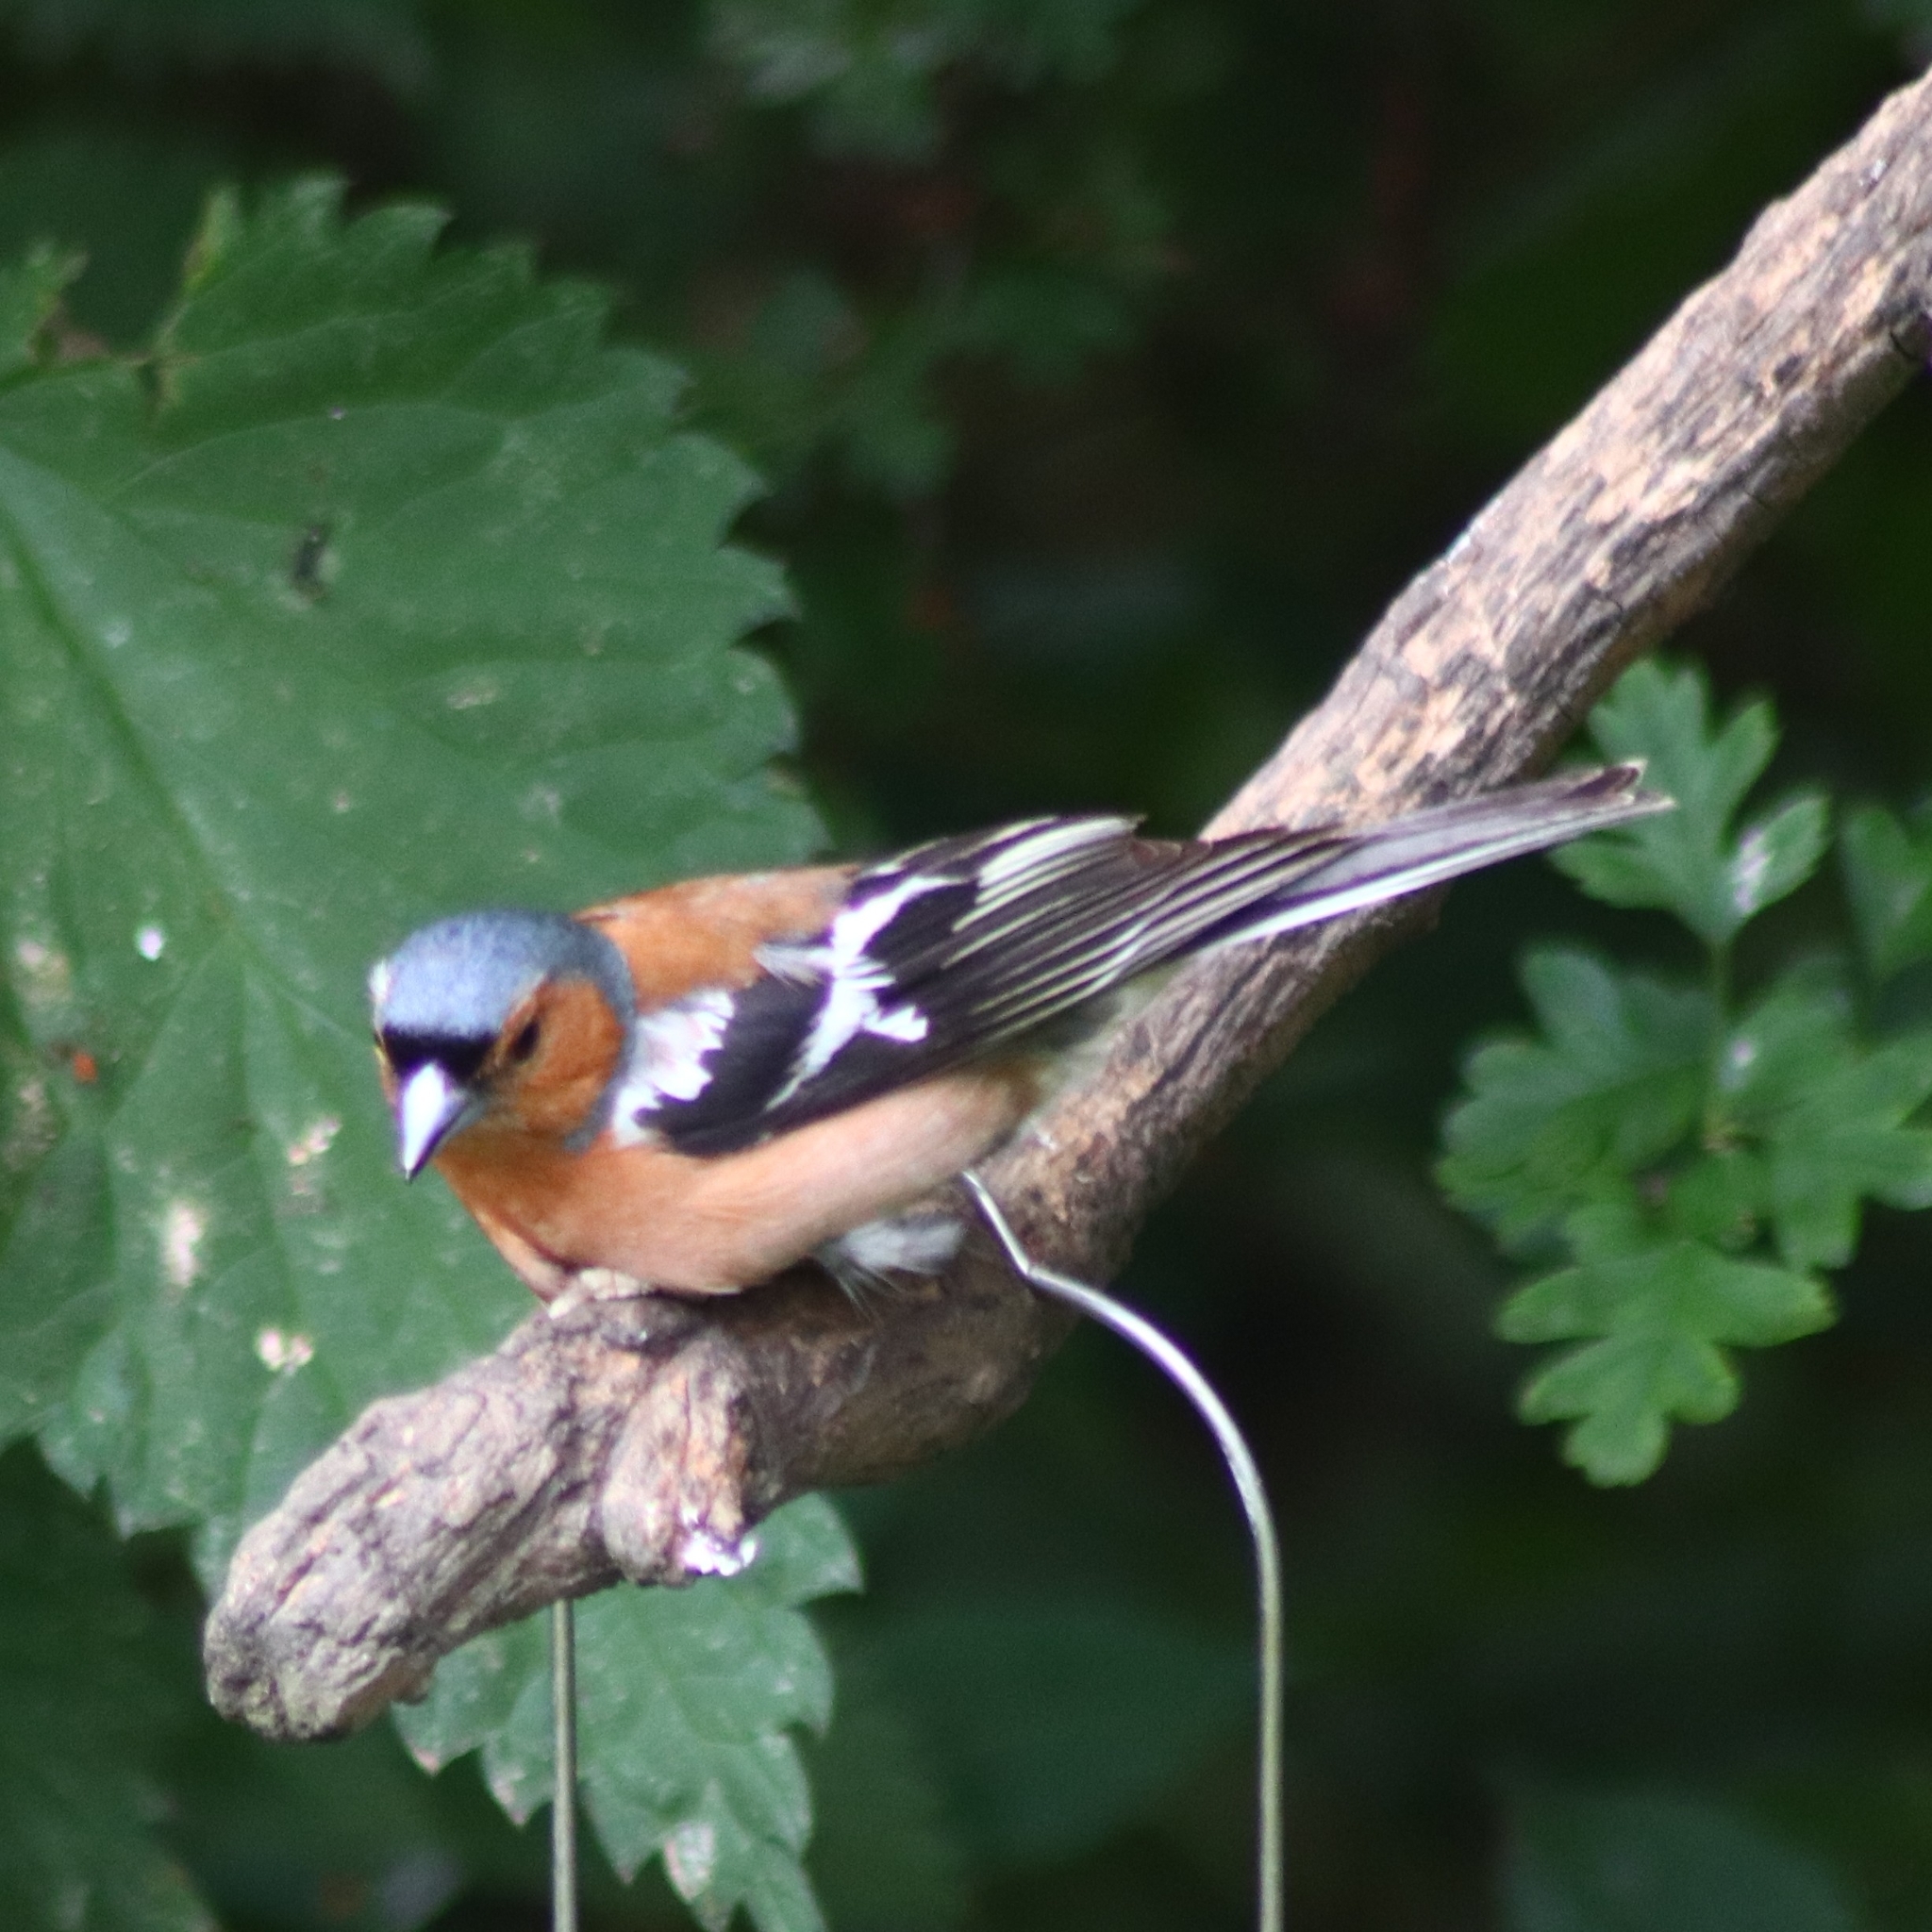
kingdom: Animalia
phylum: Chordata
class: Aves
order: Passeriformes
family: Fringillidae
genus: Fringilla
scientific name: Fringilla coelebs
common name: Common chaffinch
